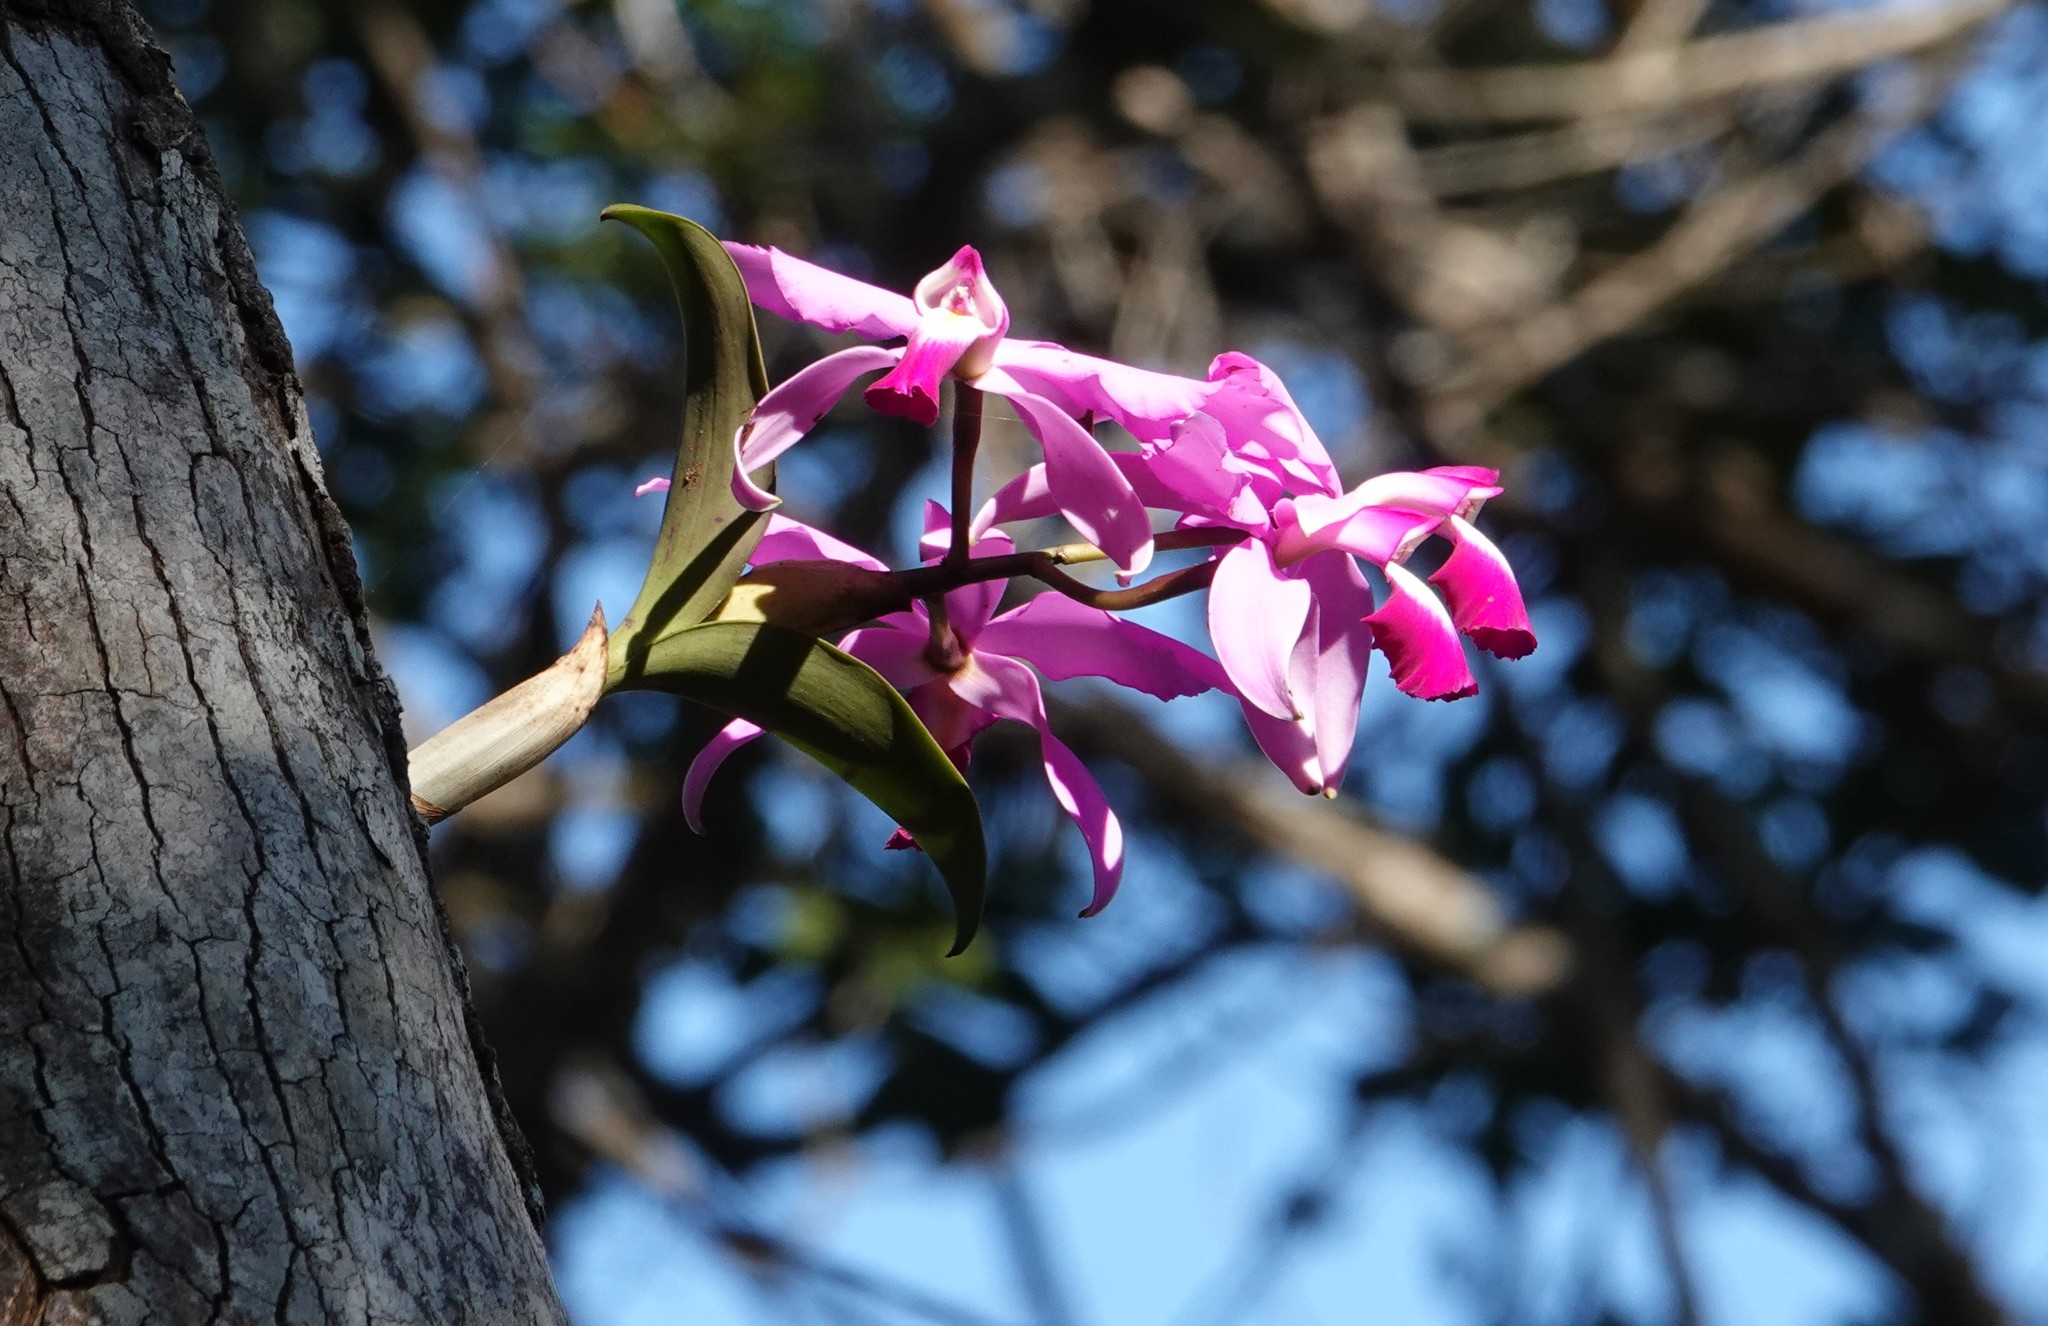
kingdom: Plantae
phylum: Tracheophyta
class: Liliopsida
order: Asparagales
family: Orchidaceae
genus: Cattleya
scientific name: Cattleya violacea
